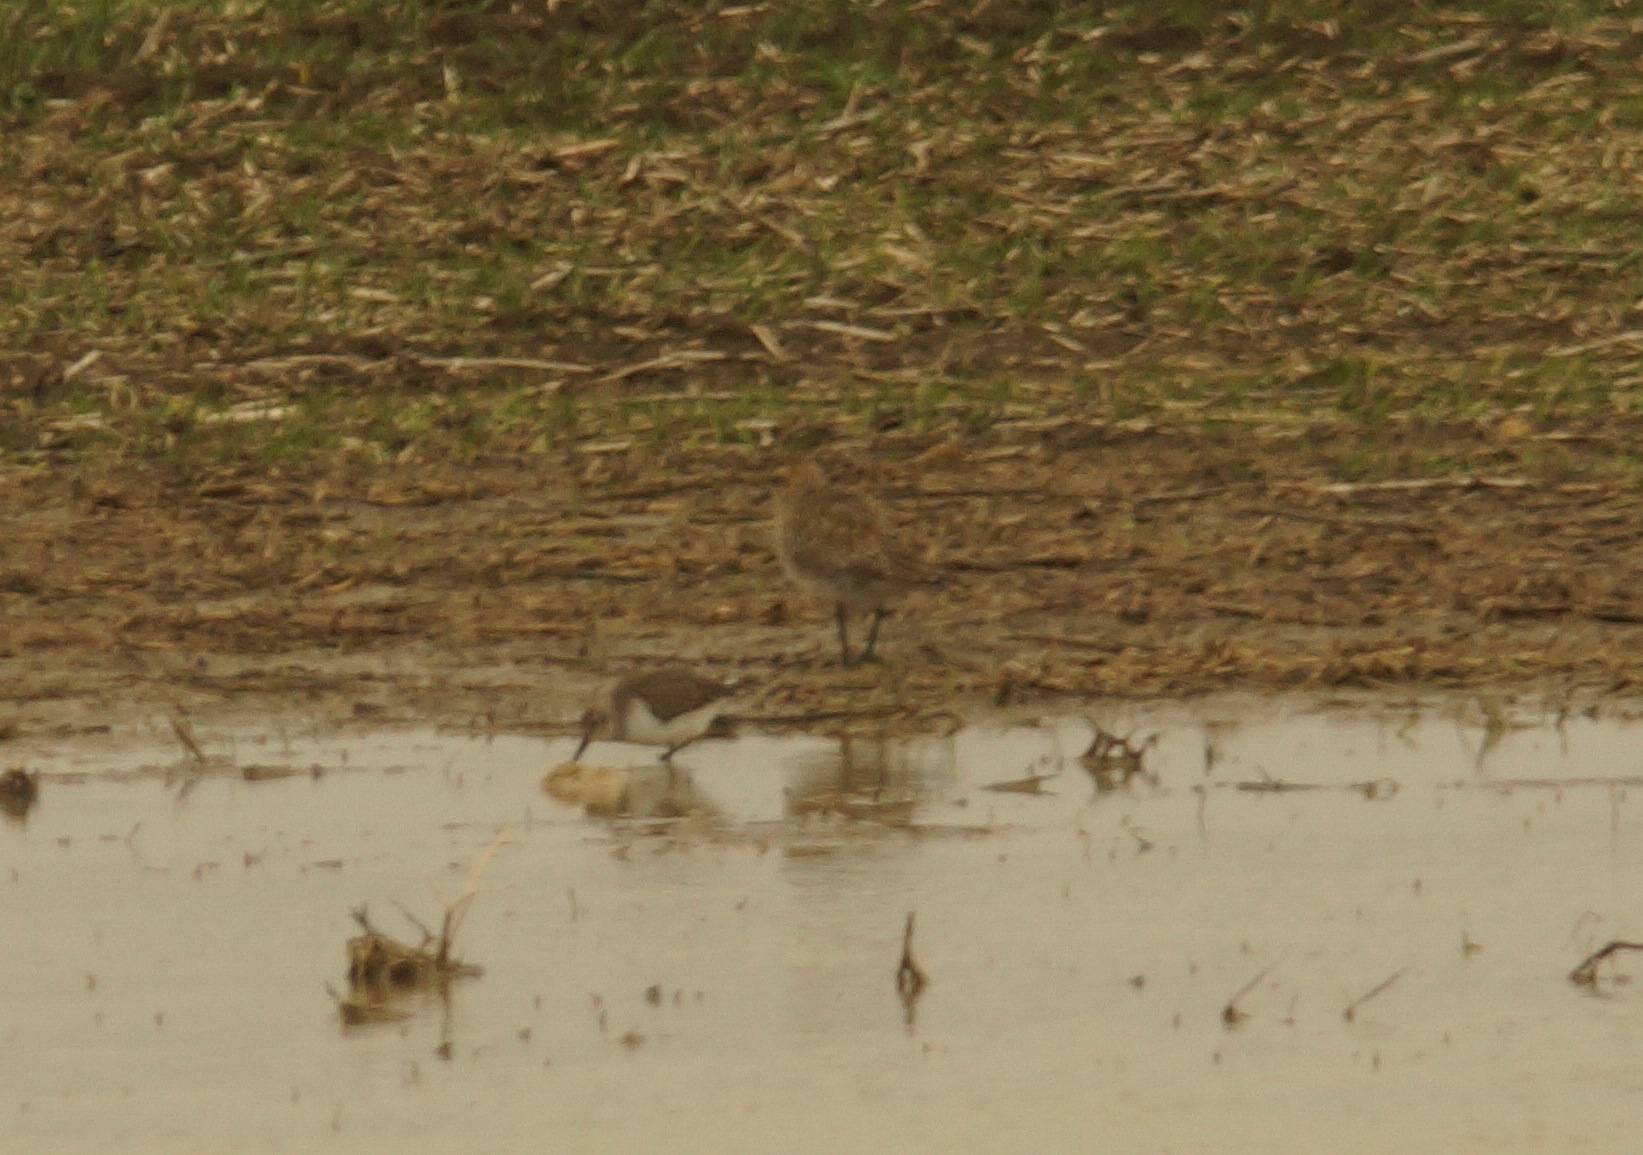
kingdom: Animalia
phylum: Chordata
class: Aves
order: Charadriiformes
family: Charadriidae
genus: Pluvialis
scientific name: Pluvialis apricaria
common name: European golden plover
